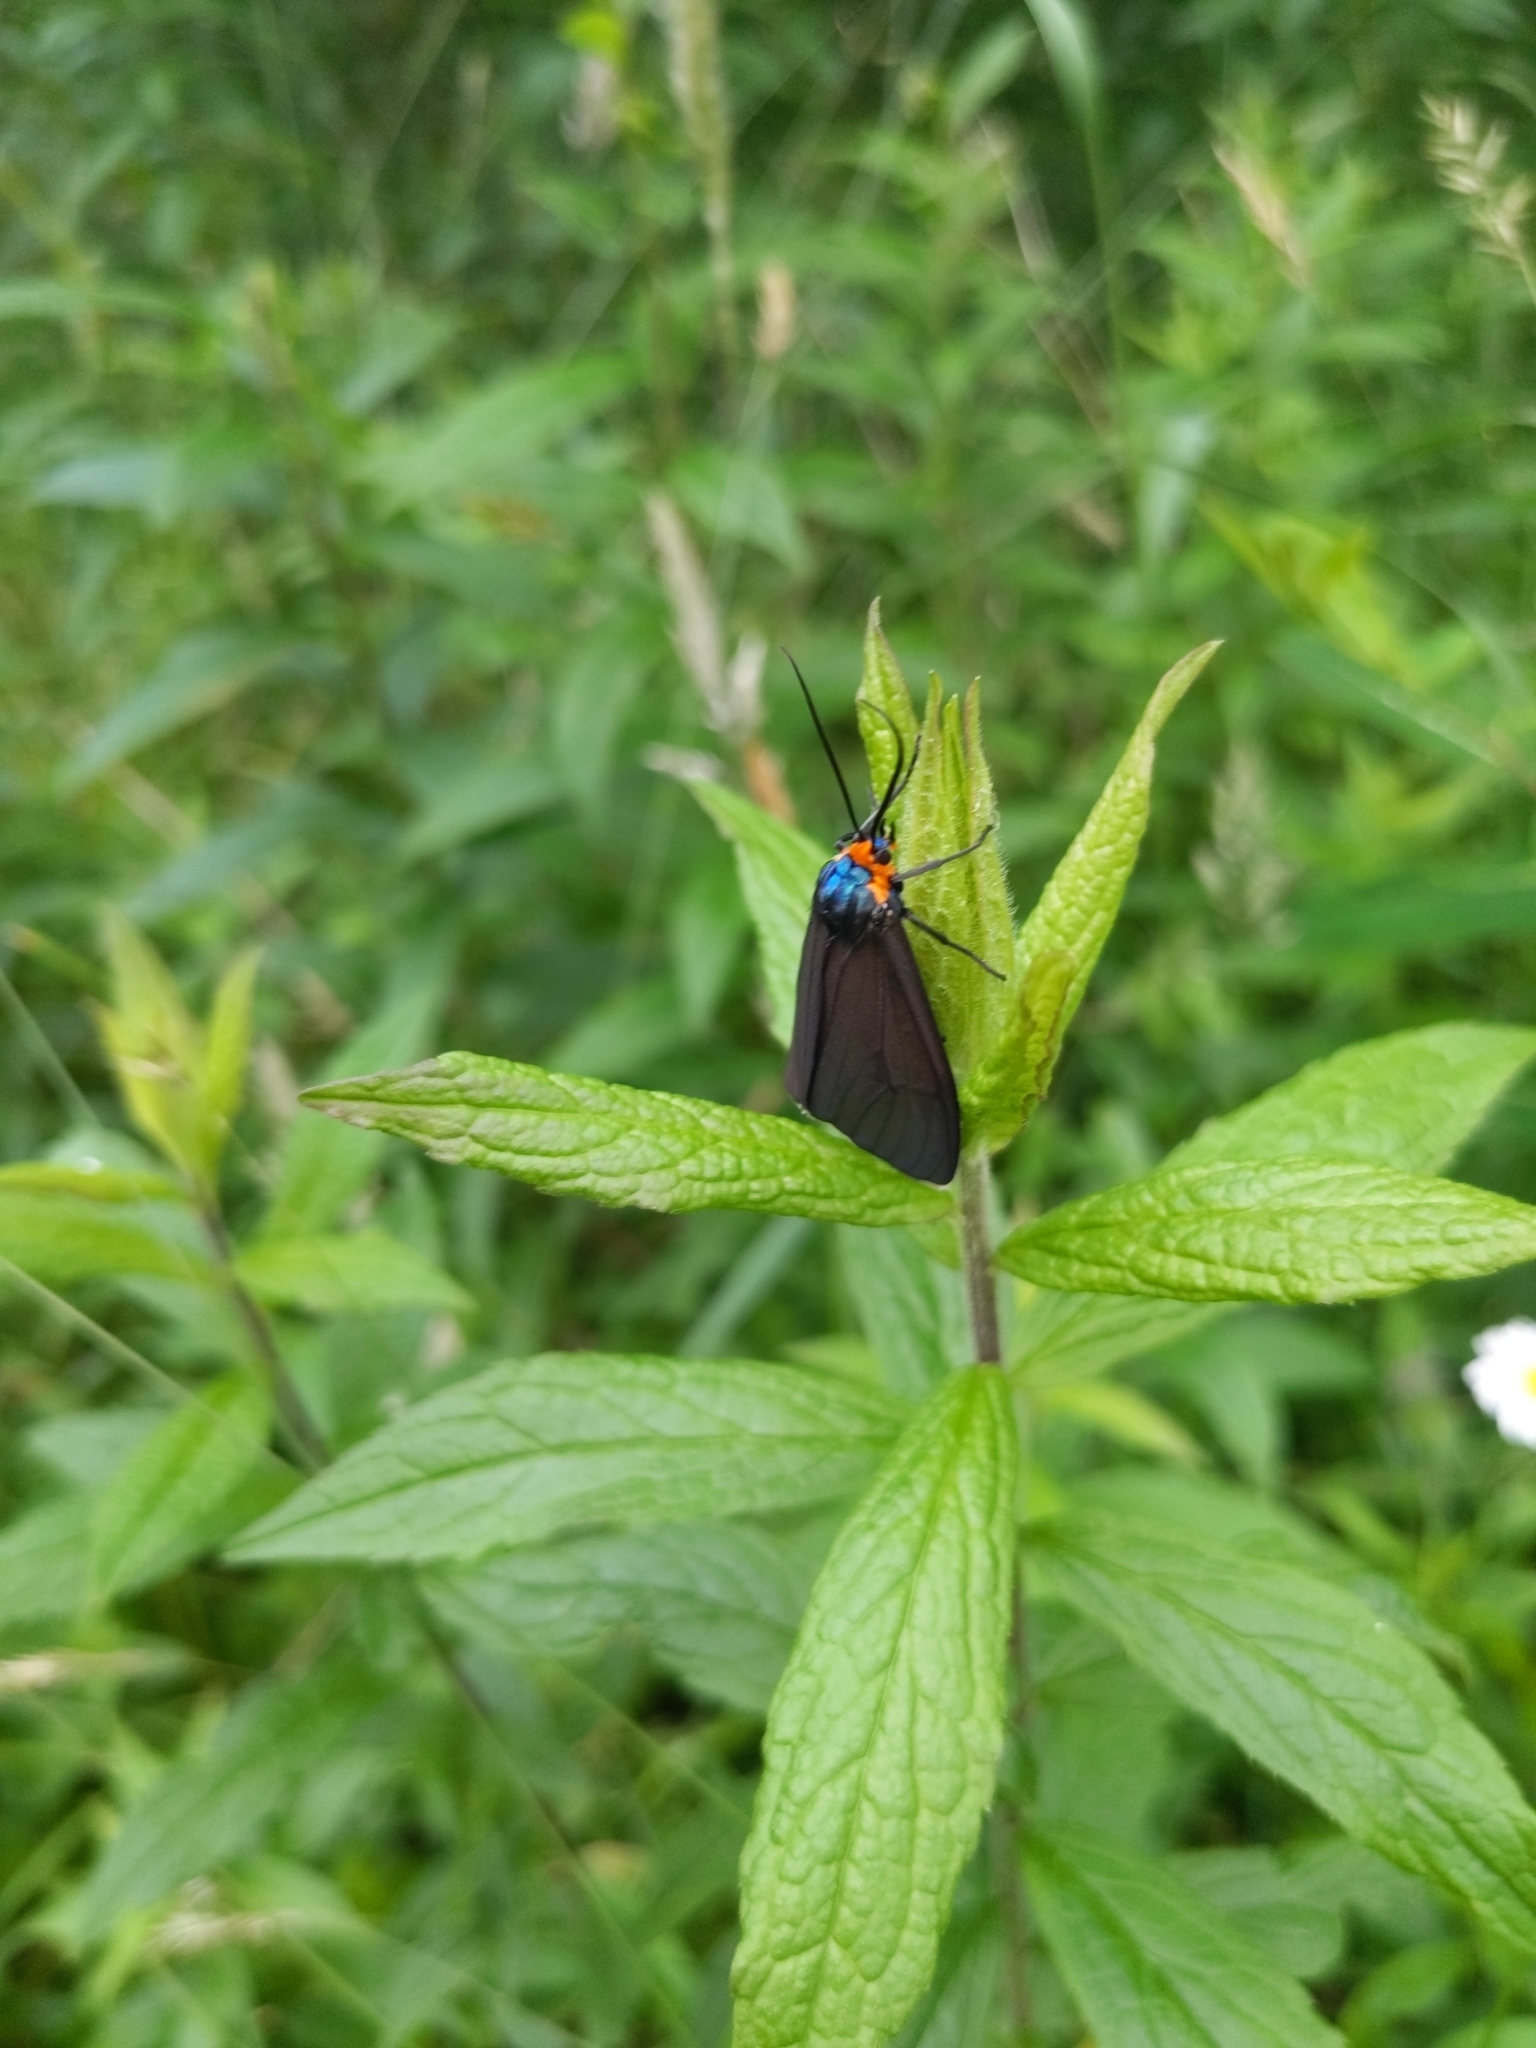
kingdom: Animalia
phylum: Arthropoda
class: Insecta
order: Lepidoptera
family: Erebidae
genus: Ctenucha
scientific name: Ctenucha virginica
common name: Virginia ctenucha moth
